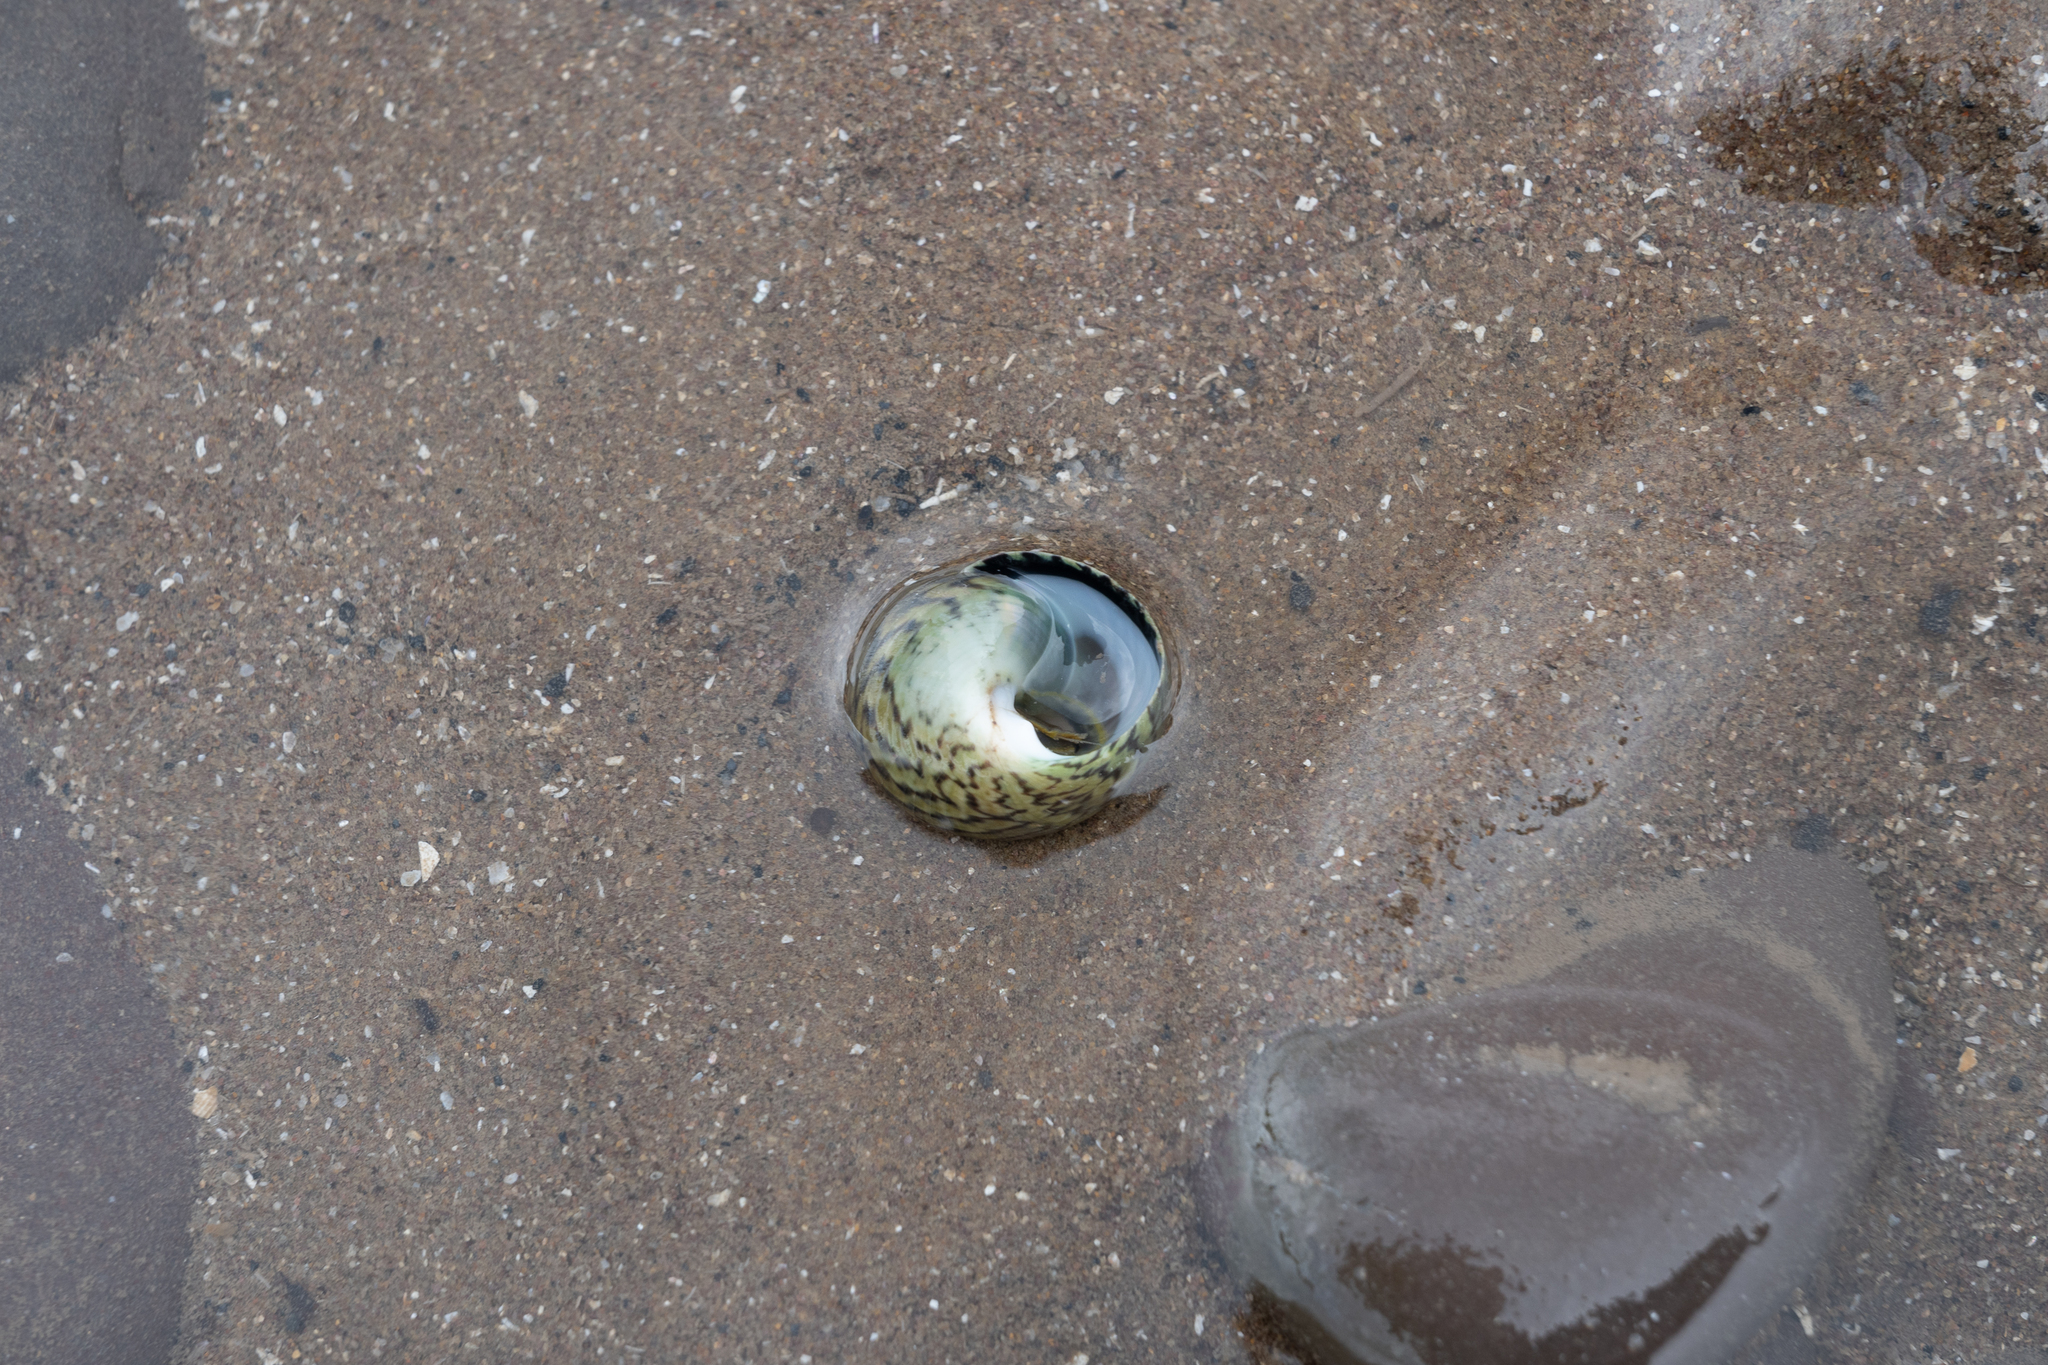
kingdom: Animalia
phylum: Mollusca
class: Gastropoda
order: Trochida
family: Trochidae
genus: Phorcus
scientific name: Phorcus lineatus
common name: Toothed top shell
